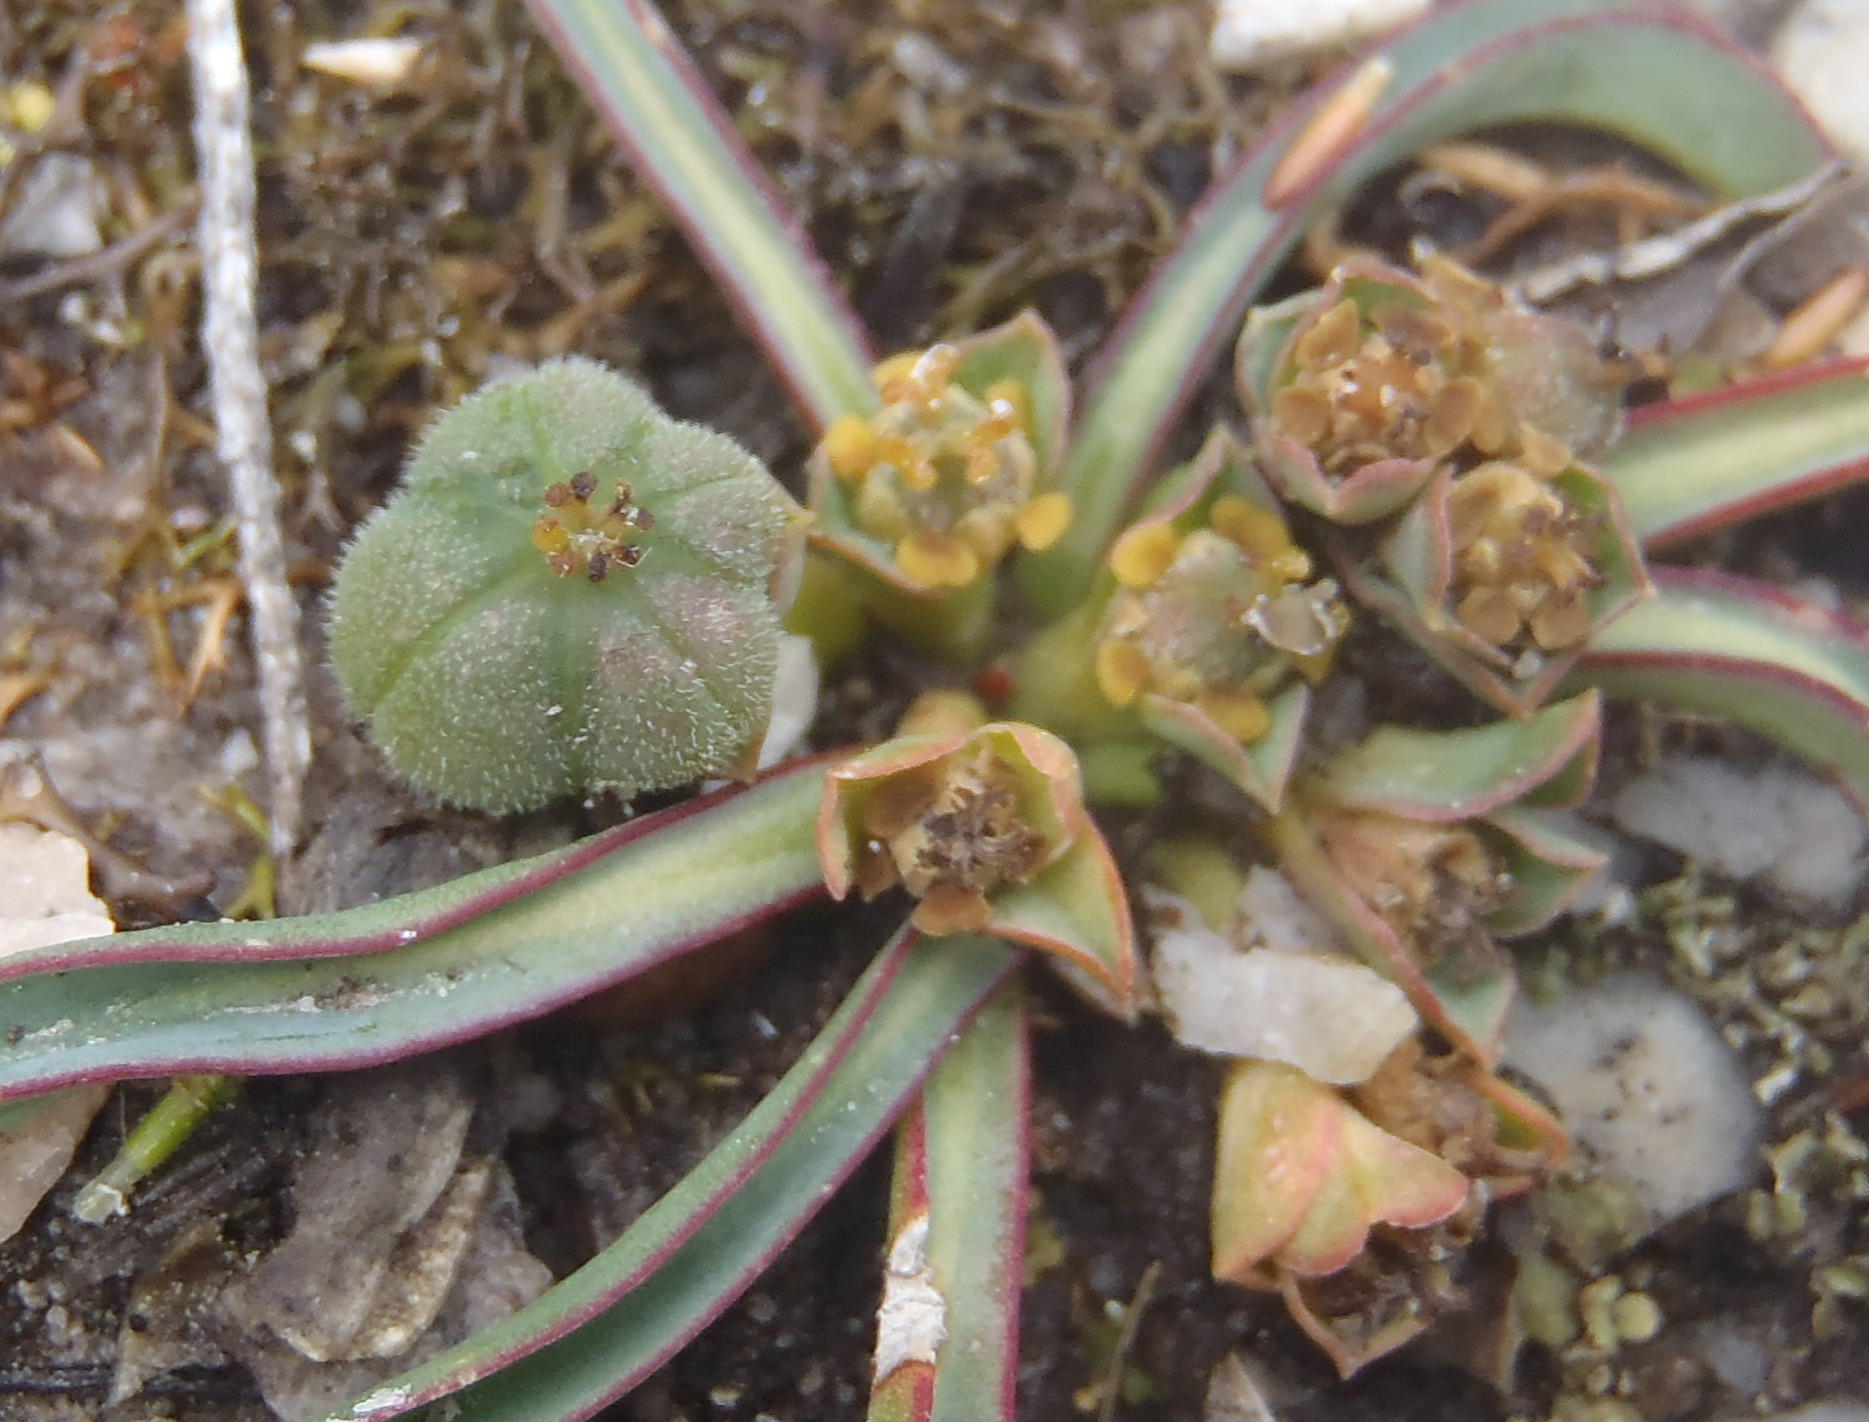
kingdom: Plantae
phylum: Tracheophyta
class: Magnoliopsida
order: Malpighiales
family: Euphorbiaceae
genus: Euphorbia
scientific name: Euphorbia silenifolia
